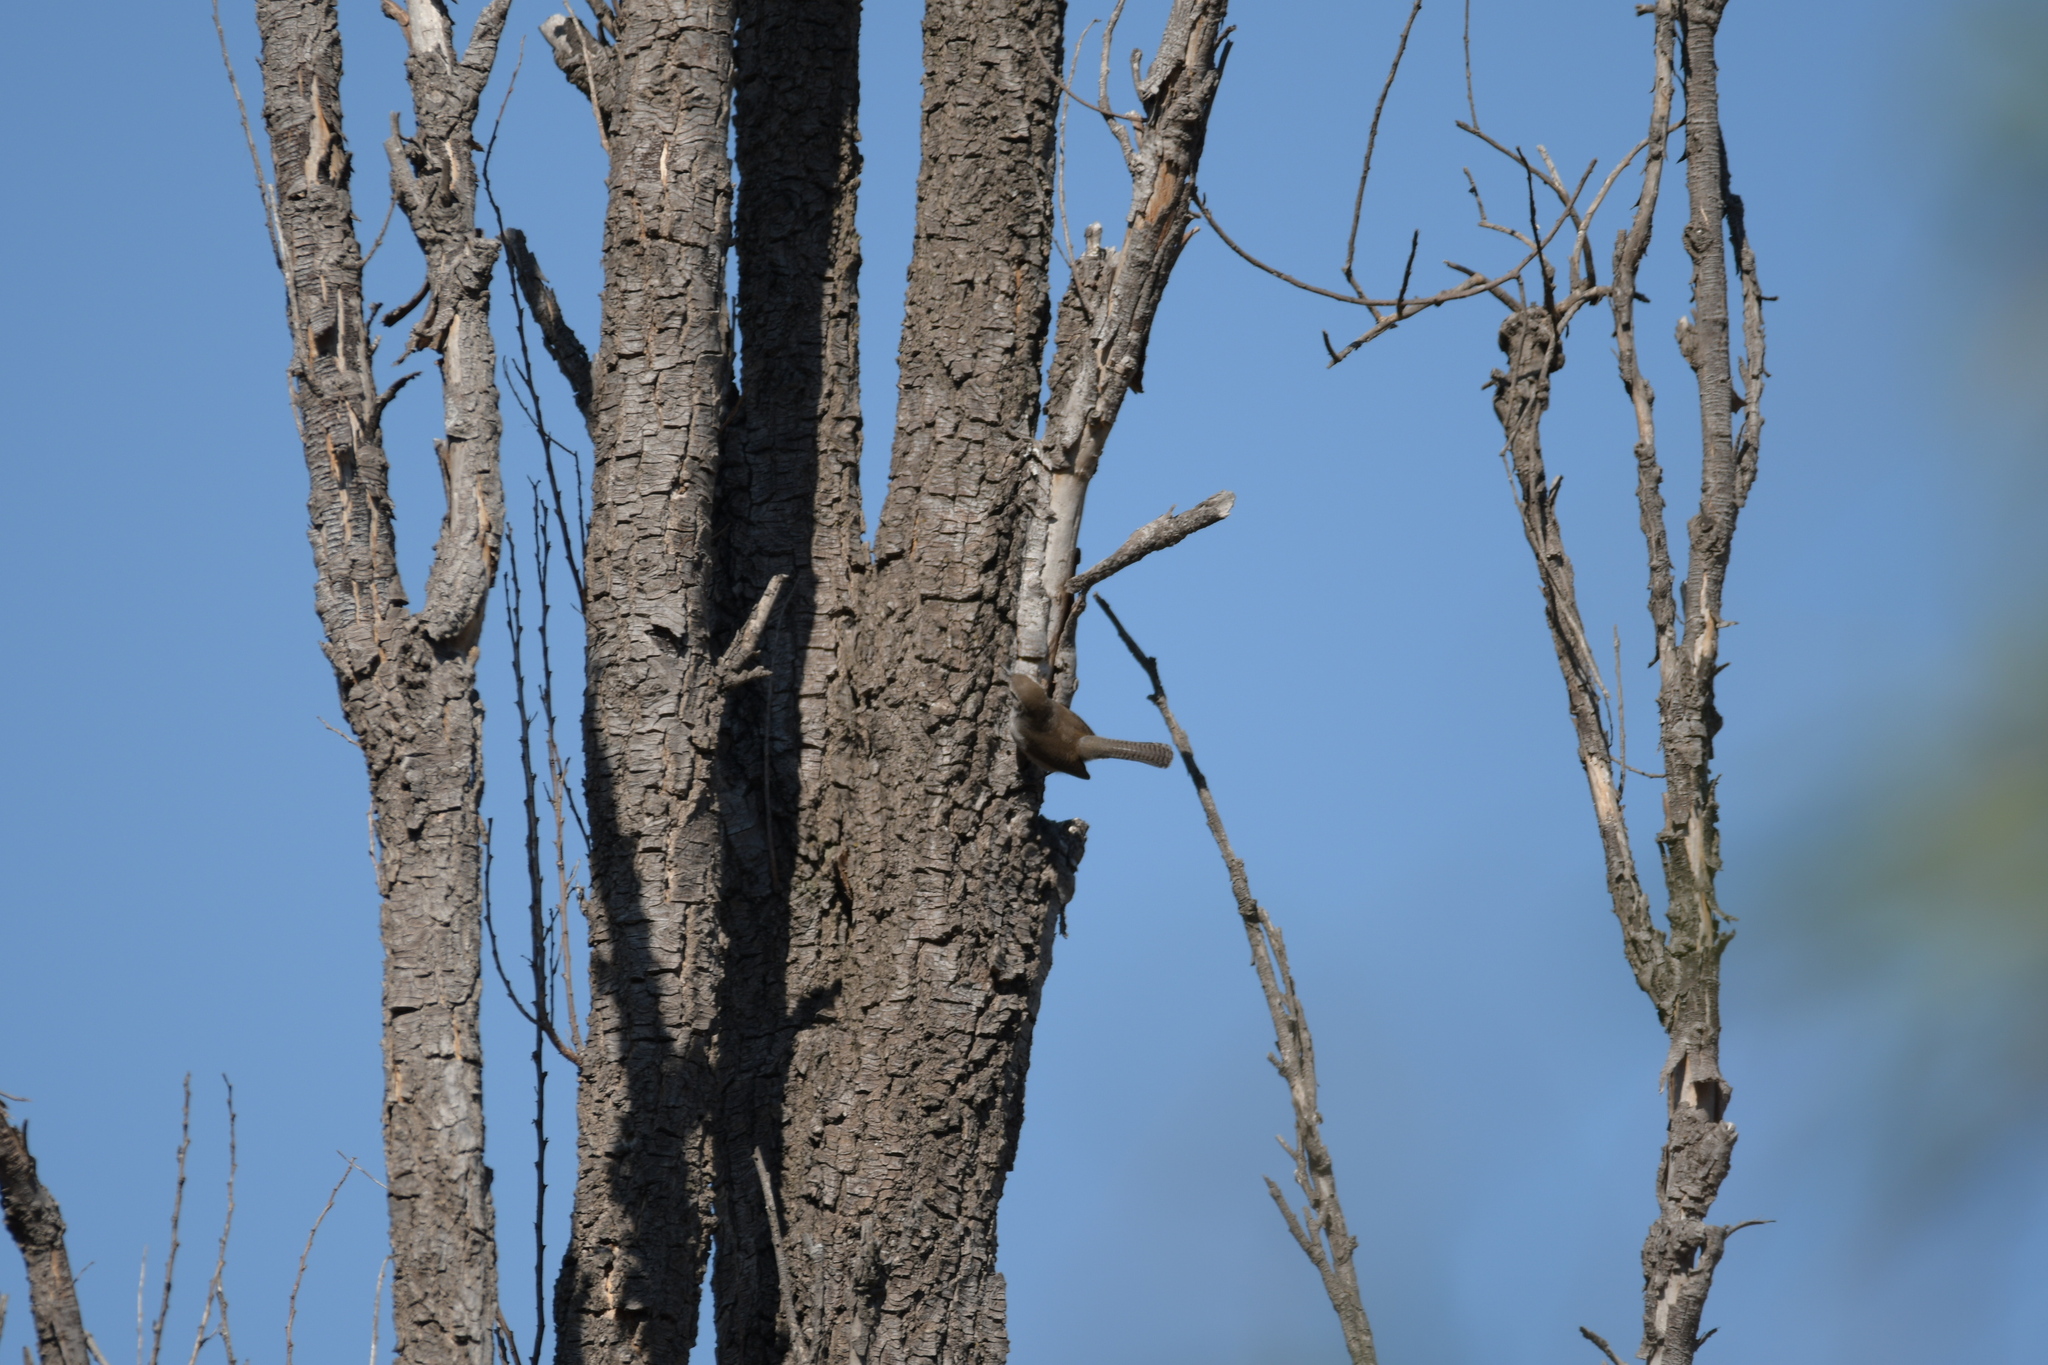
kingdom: Animalia
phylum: Chordata
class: Aves
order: Passeriformes
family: Troglodytidae
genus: Thryomanes
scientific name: Thryomanes bewickii
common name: Bewick's wren
